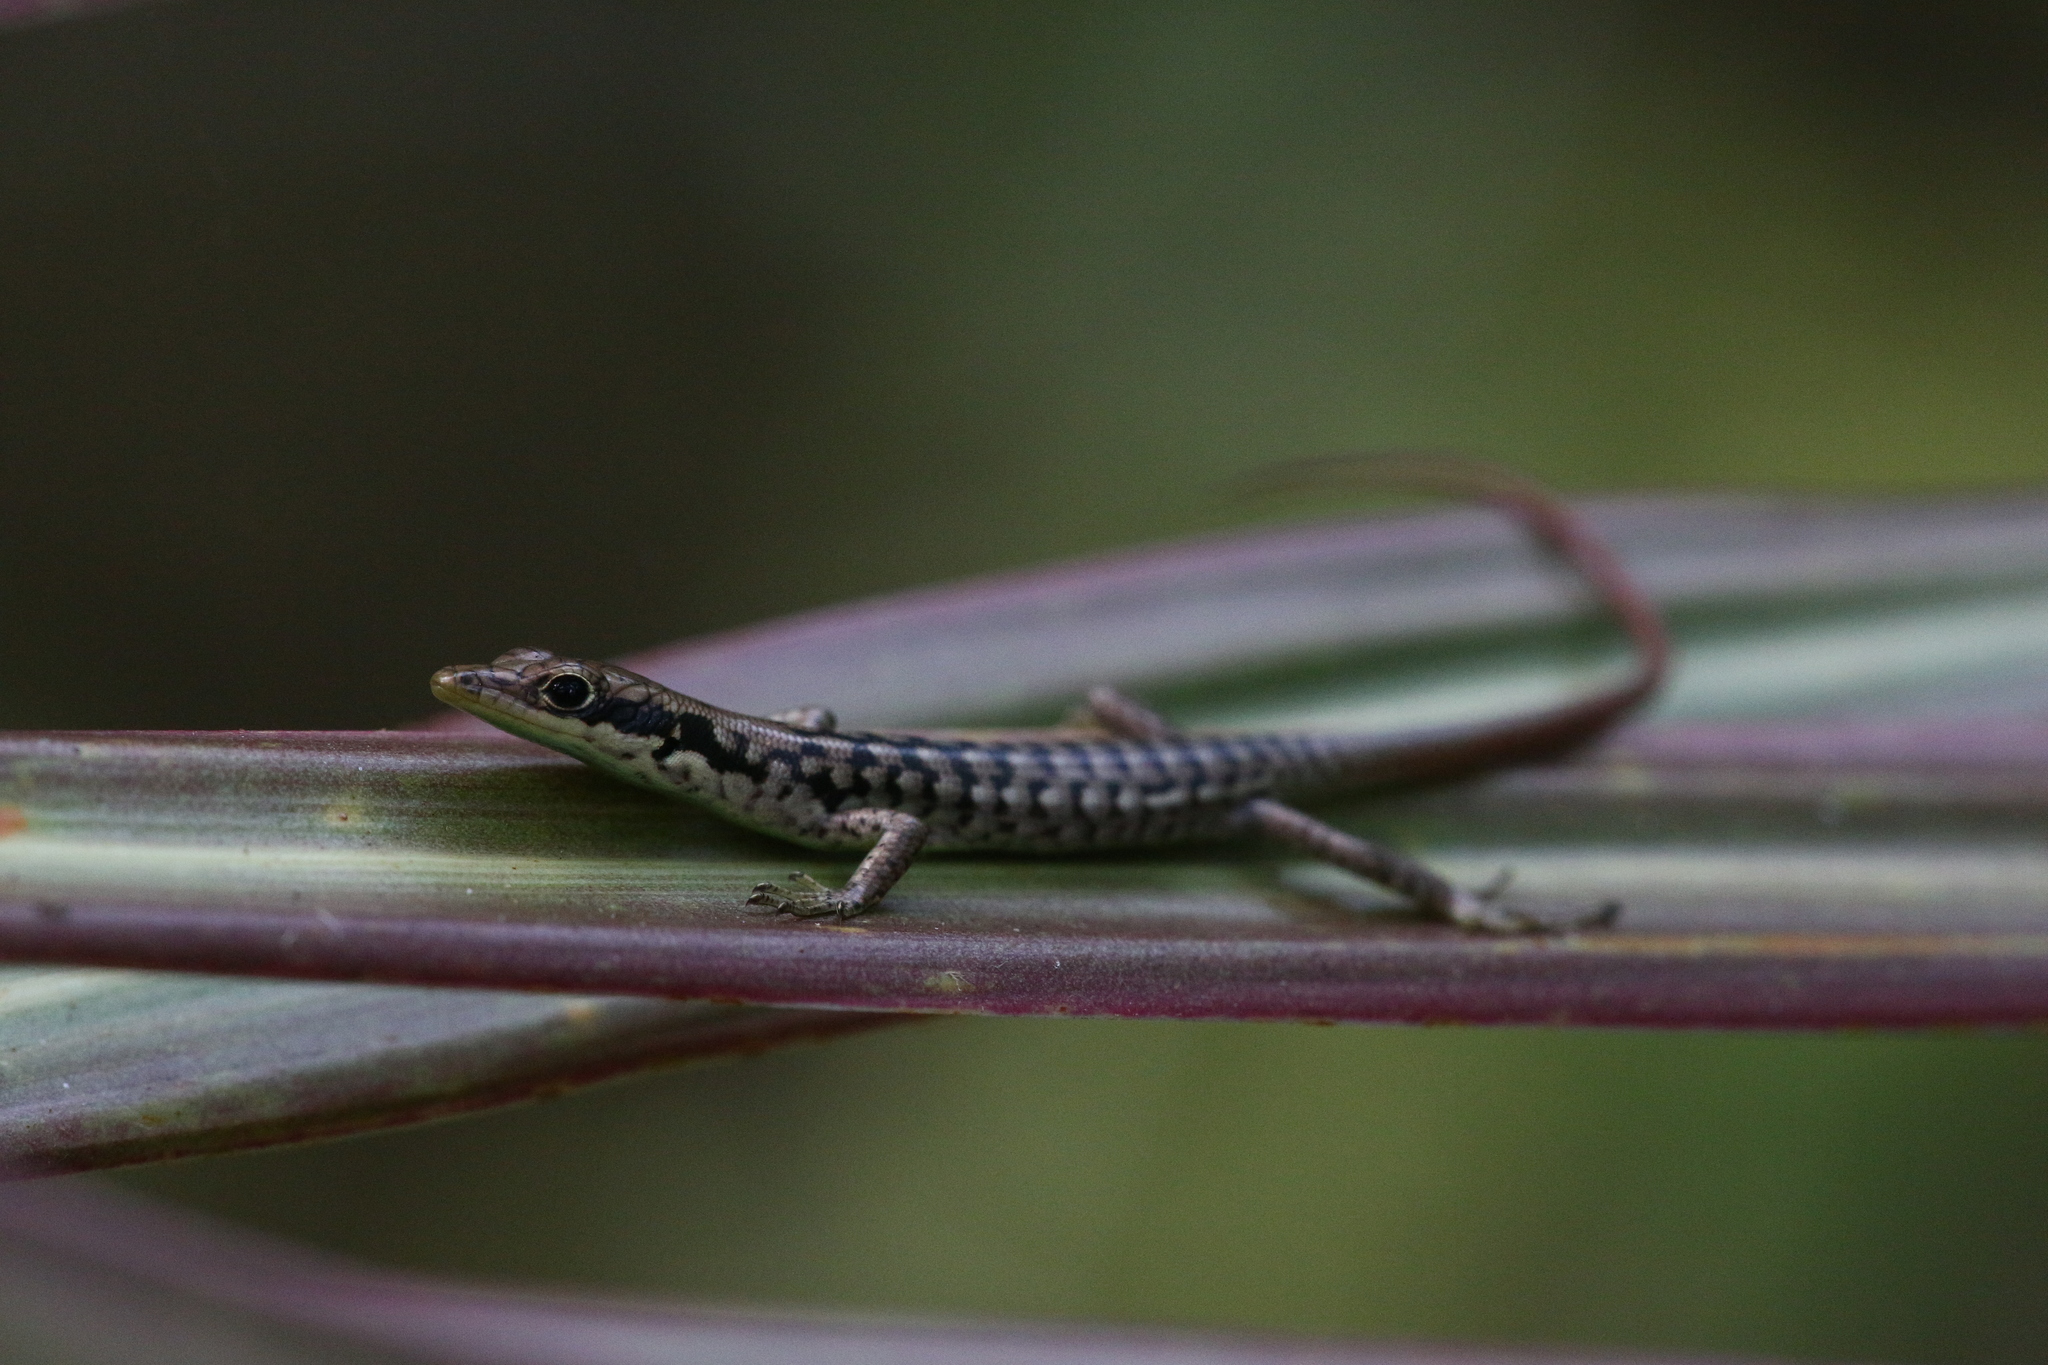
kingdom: Animalia
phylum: Chordata
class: Squamata
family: Scincidae
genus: Epibator
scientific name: Epibator nigrofasciolatus
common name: Green-bellied tree skink
